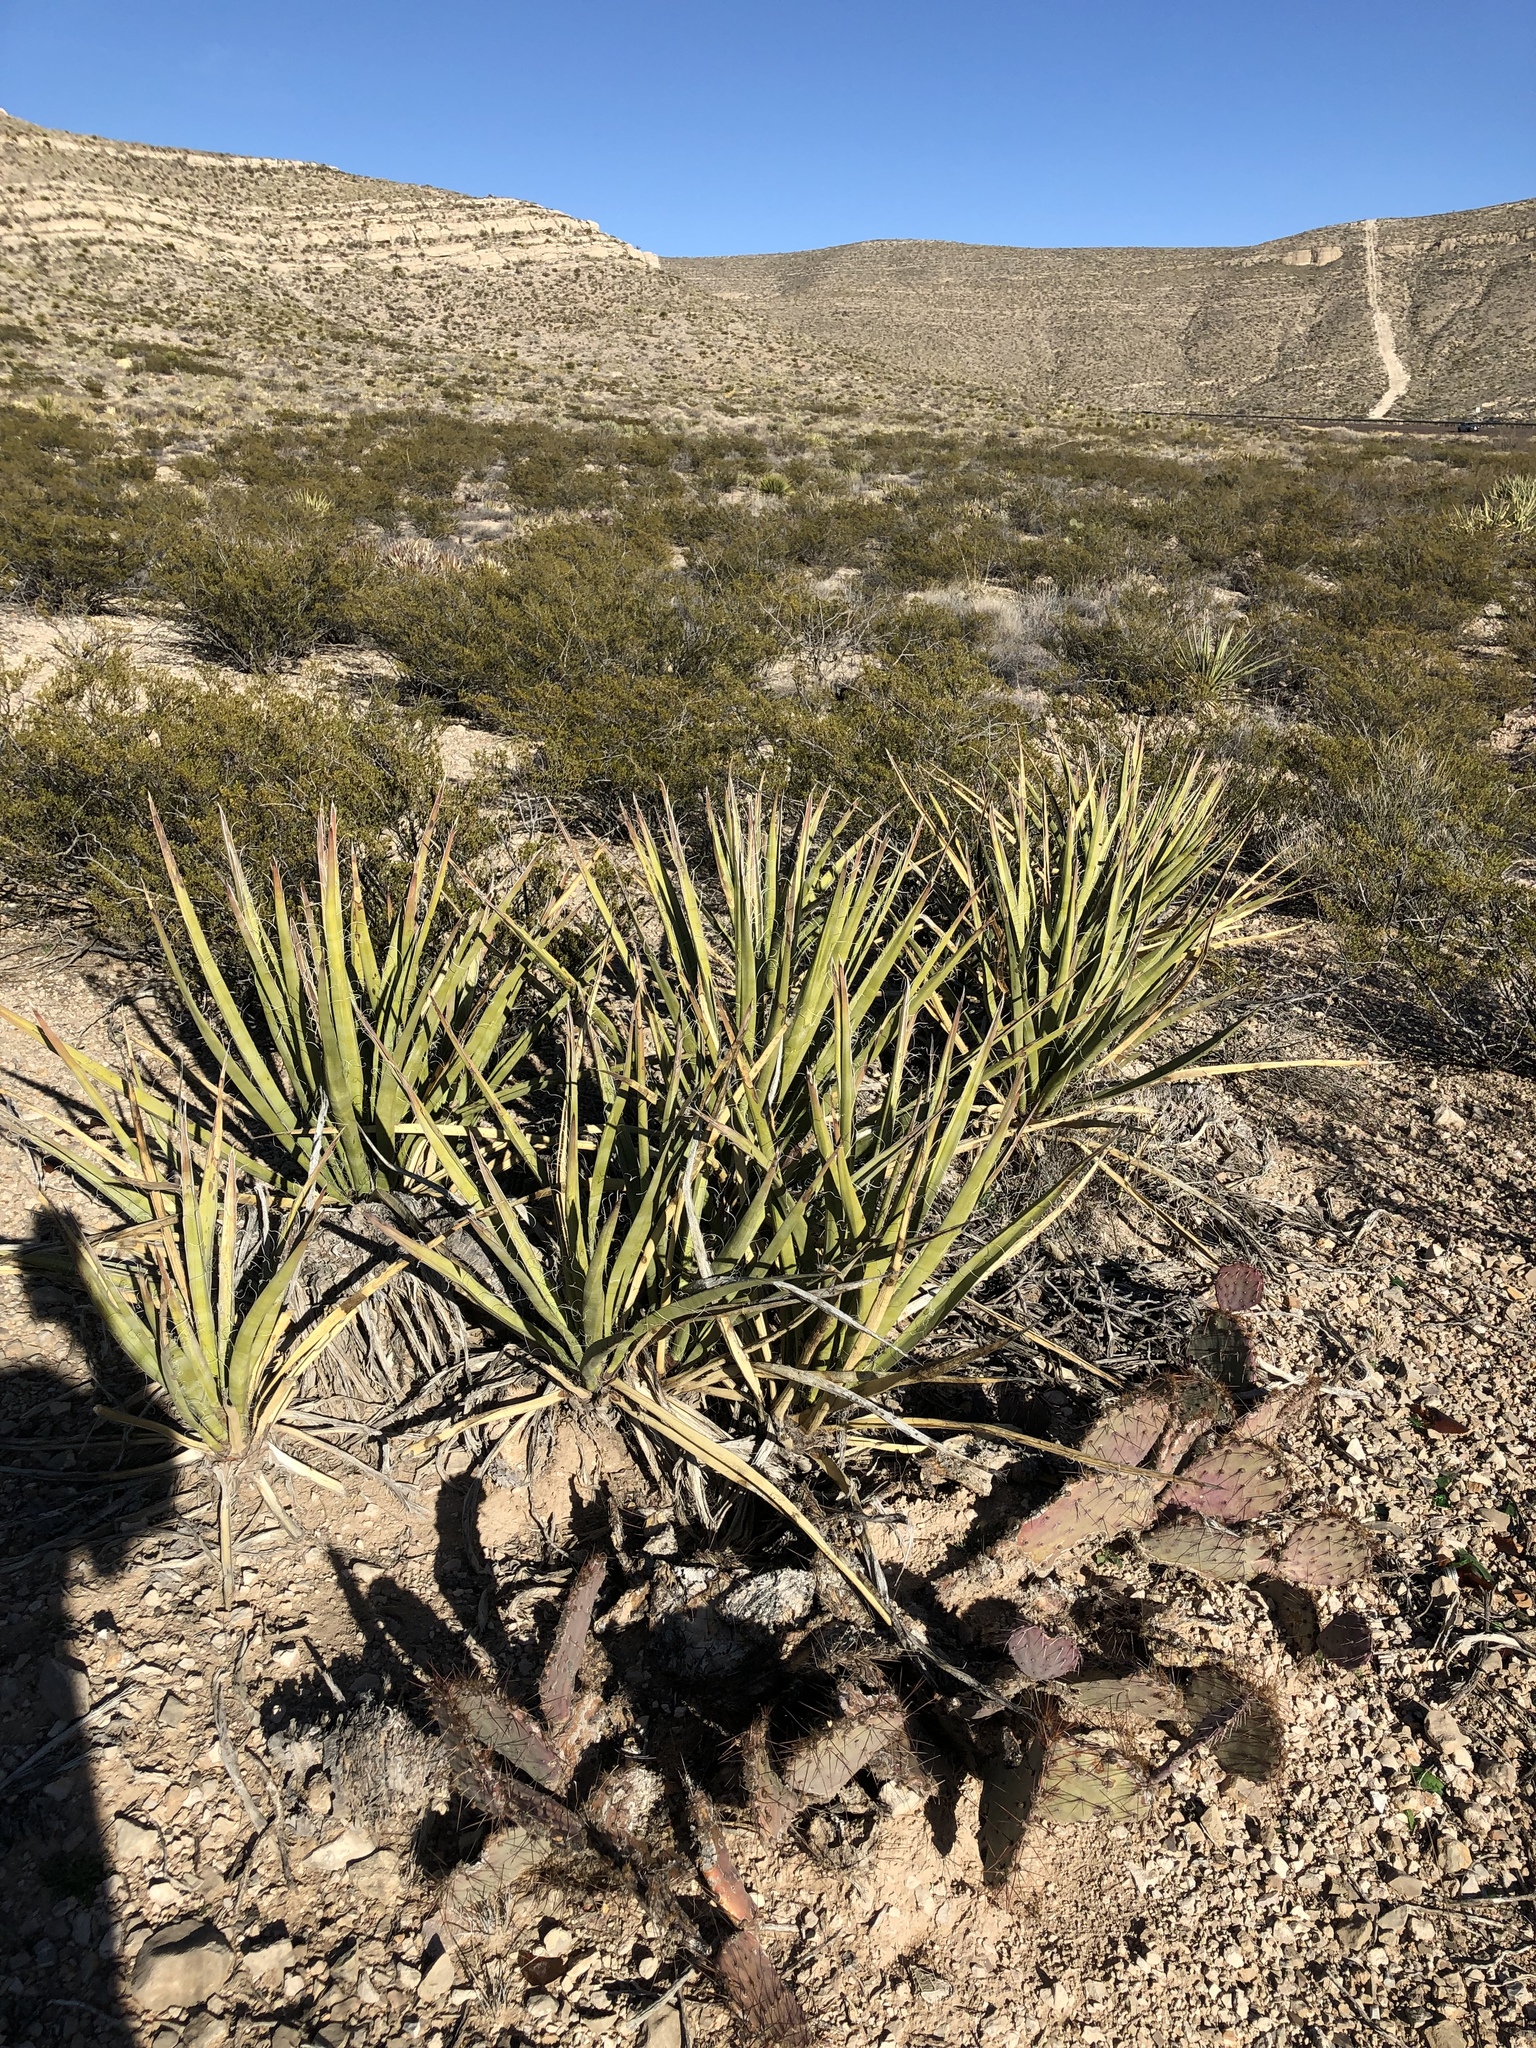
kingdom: Plantae
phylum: Tracheophyta
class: Liliopsida
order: Asparagales
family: Asparagaceae
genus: Yucca
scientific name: Yucca baccata
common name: Banana yucca
